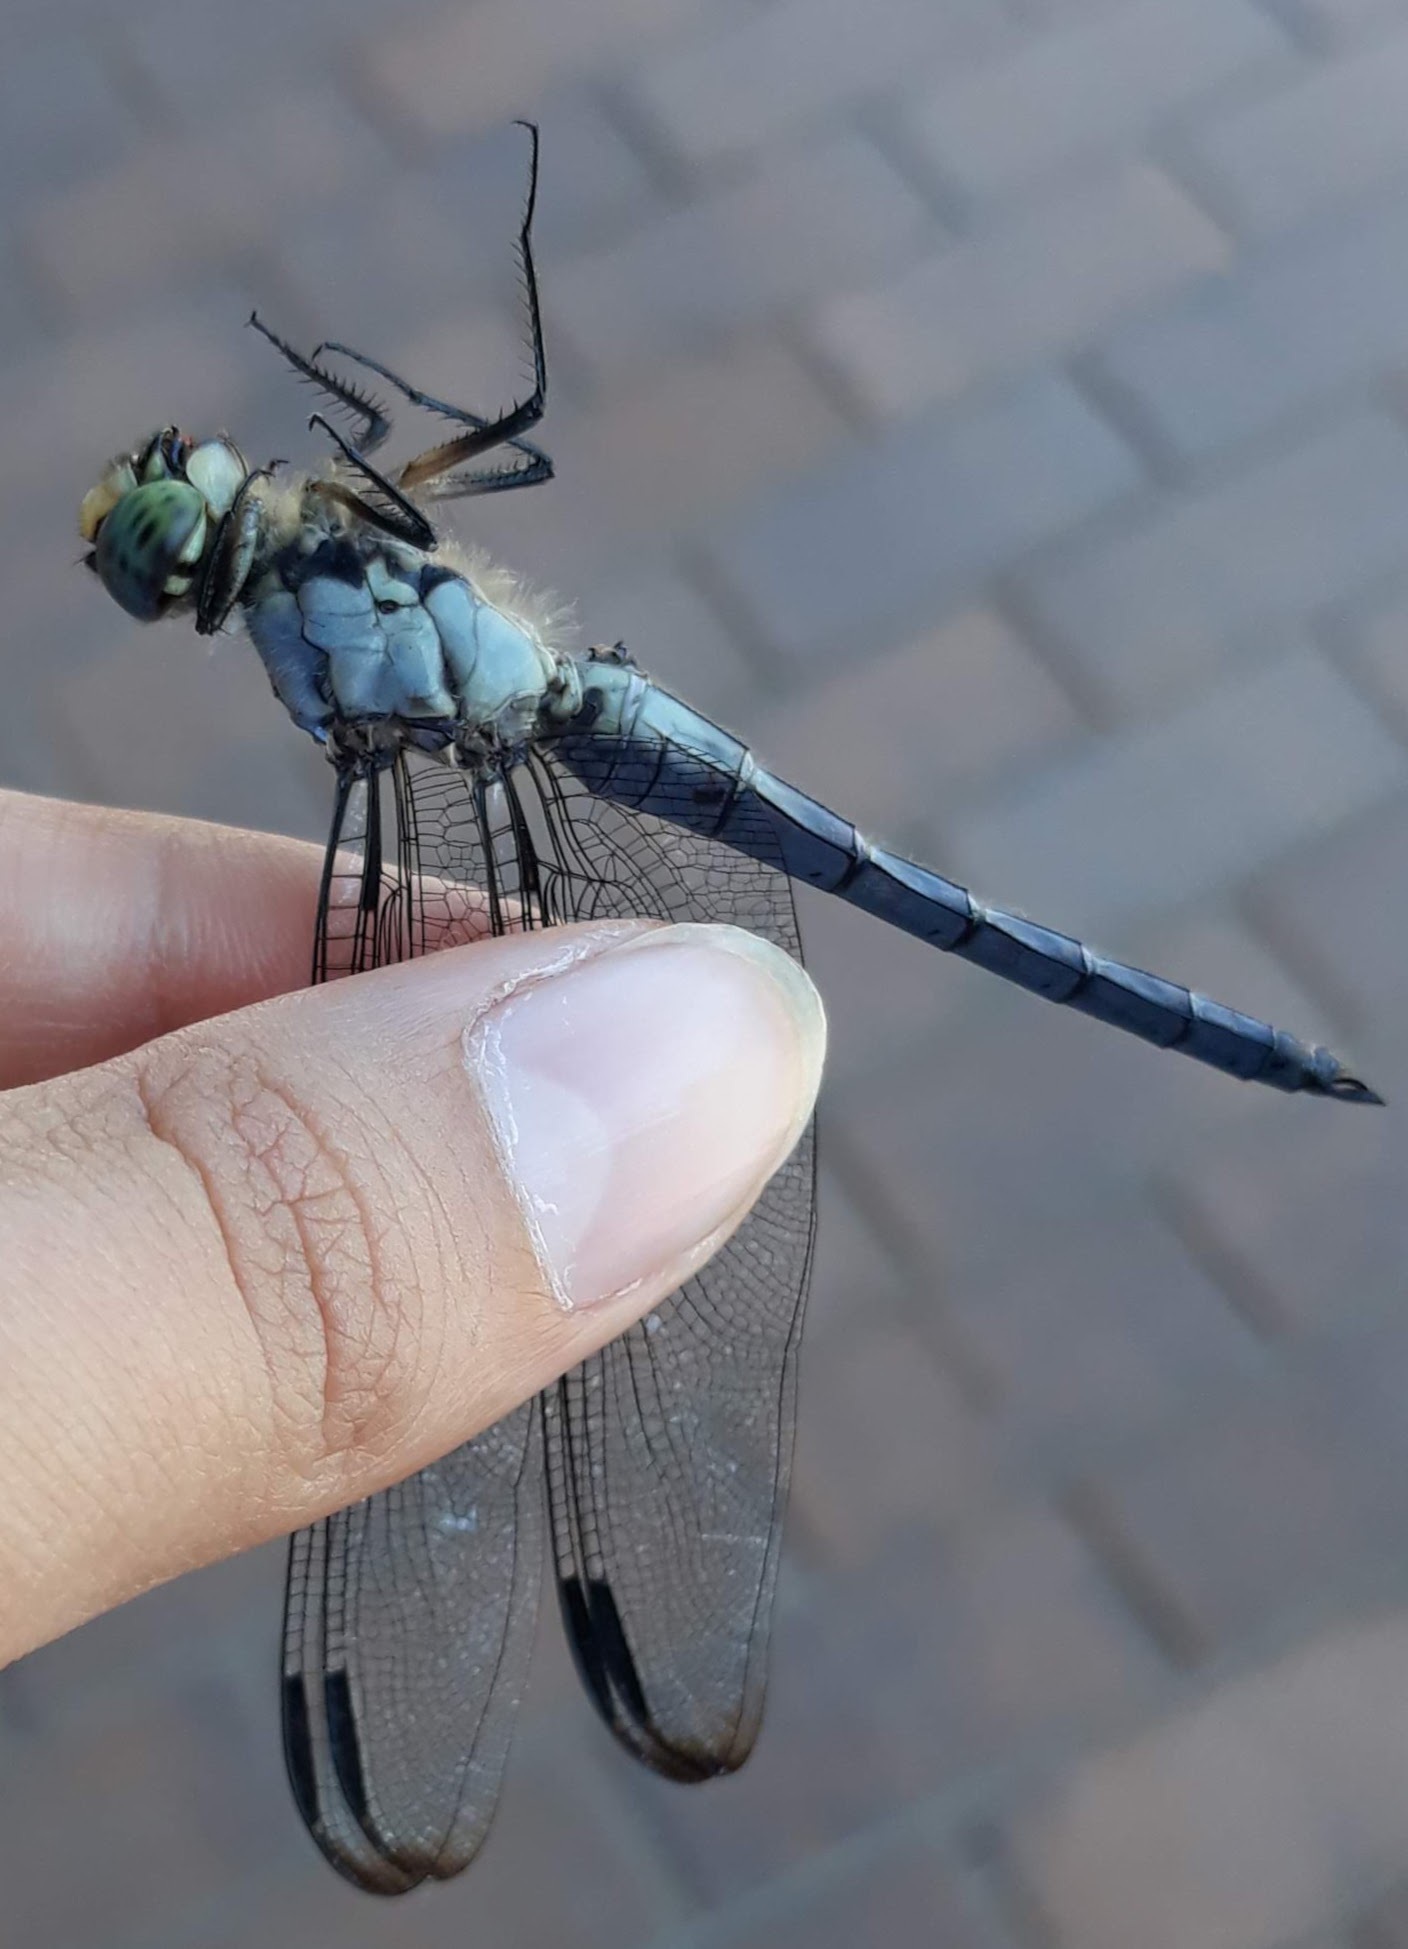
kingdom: Animalia
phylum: Arthropoda
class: Insecta
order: Odonata
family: Libellulidae
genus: Libellula
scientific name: Libellula vibrans
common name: Great blue skimmer
